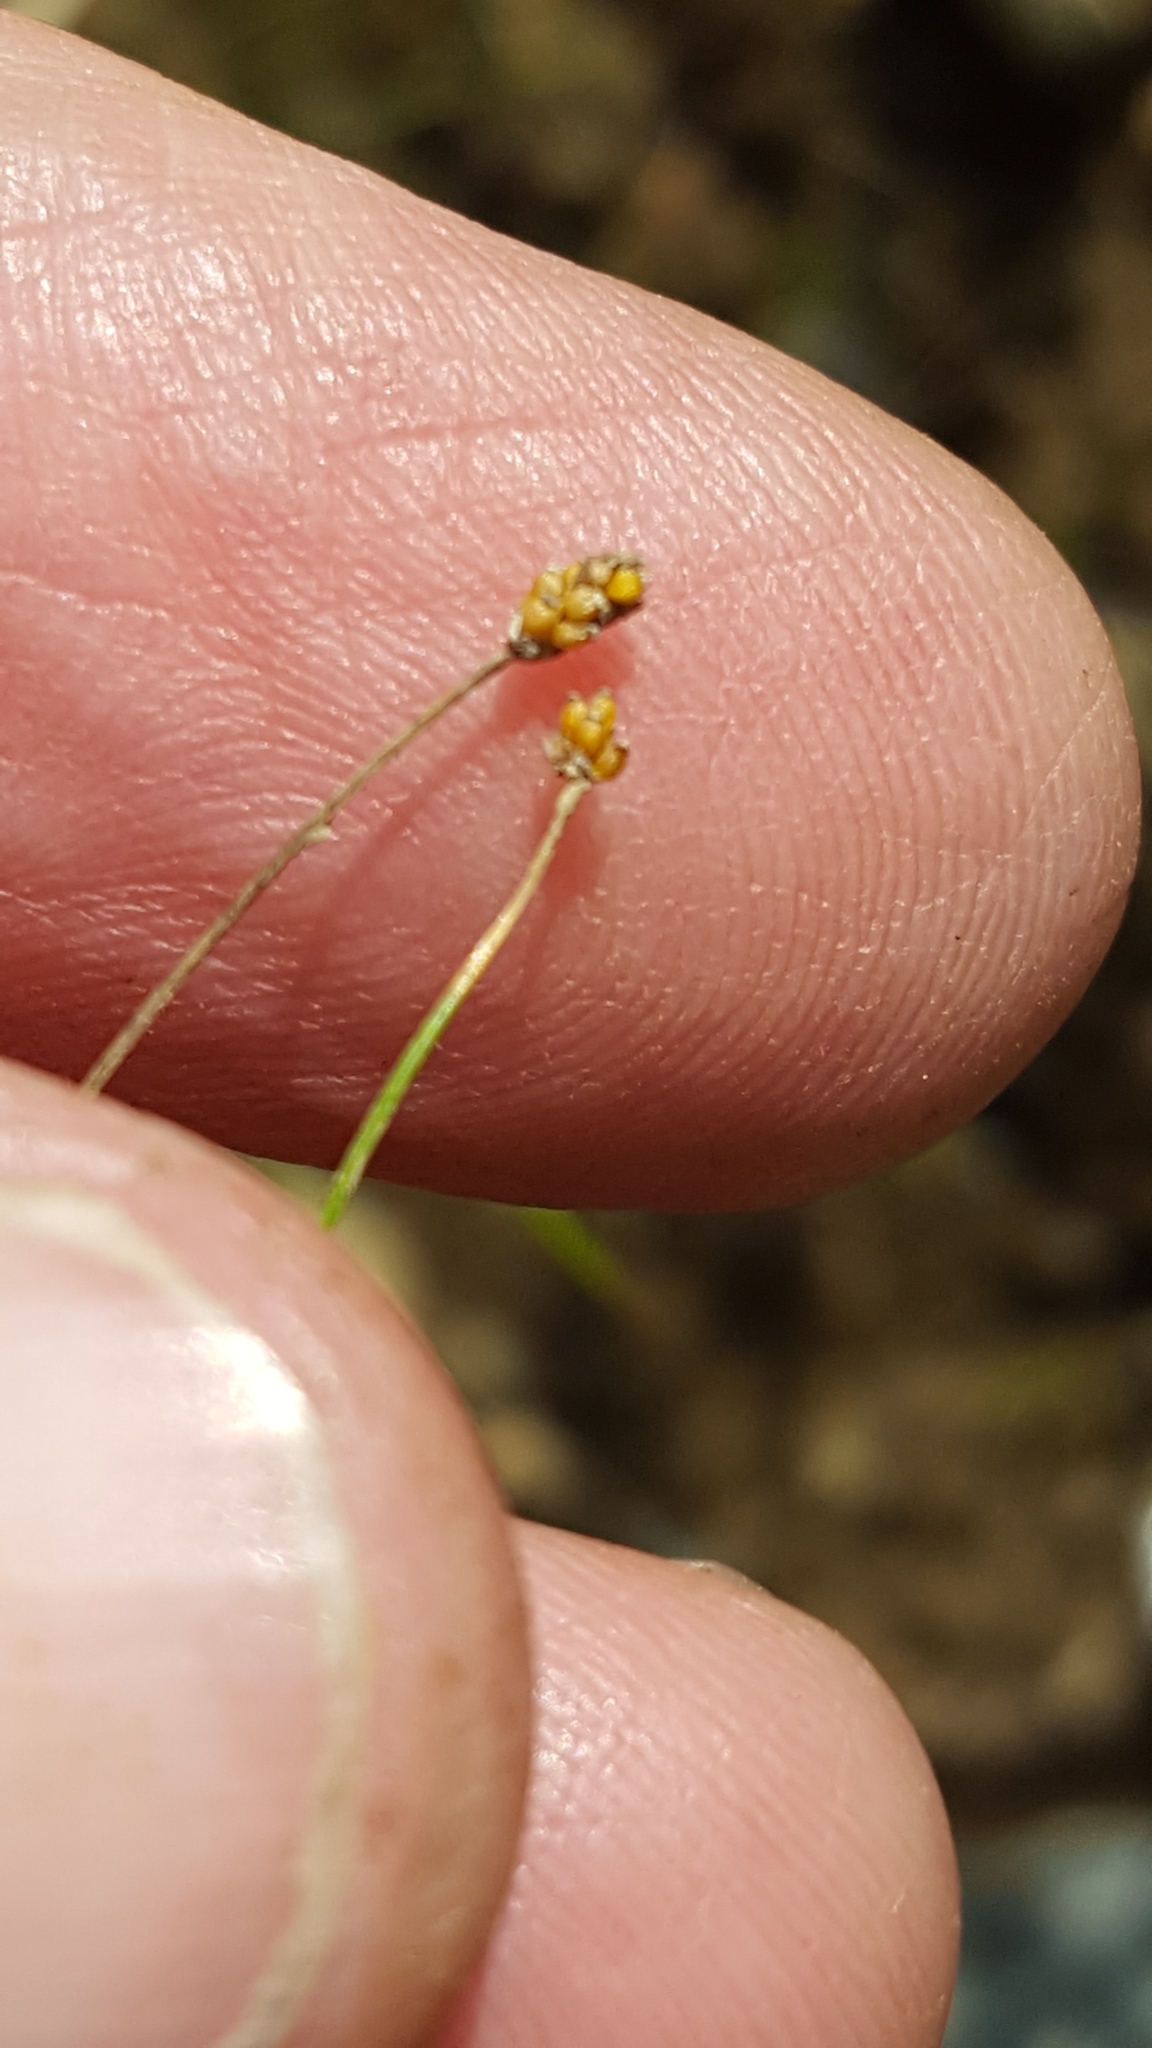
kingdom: Plantae
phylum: Tracheophyta
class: Liliopsida
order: Poales
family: Cyperaceae
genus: Eleocharis
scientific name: Eleocharis nitida
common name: Neat spikerush
